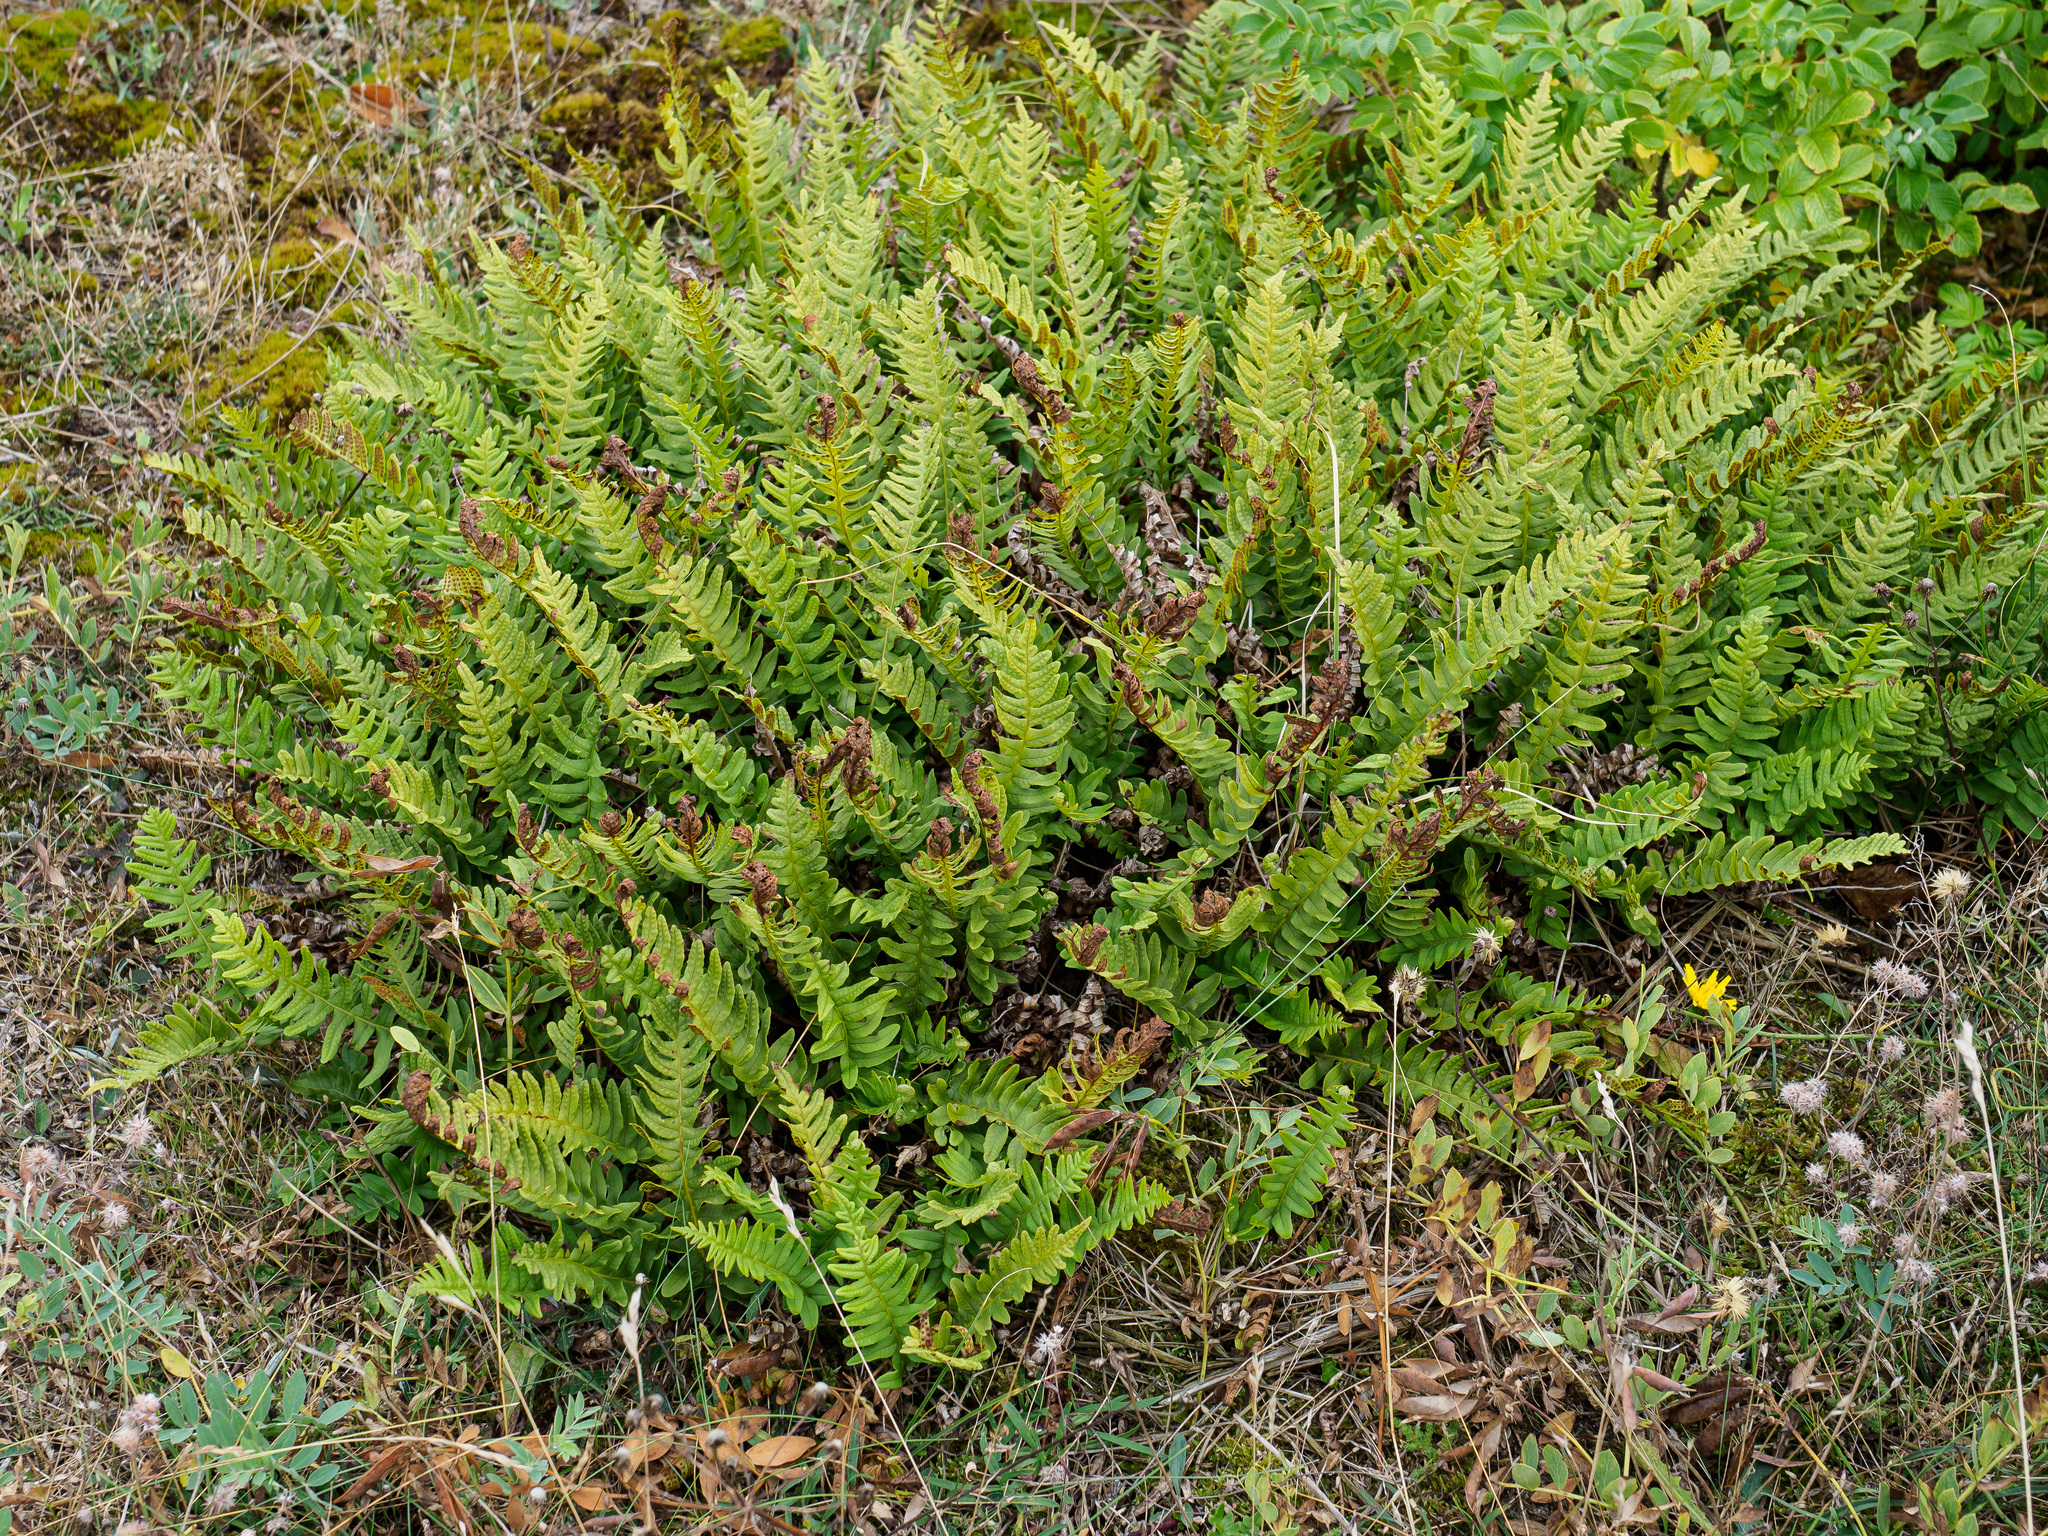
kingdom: Plantae
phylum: Tracheophyta
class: Polypodiopsida
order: Polypodiales
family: Polypodiaceae
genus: Polypodium
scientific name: Polypodium vulgare
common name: Common polypody
